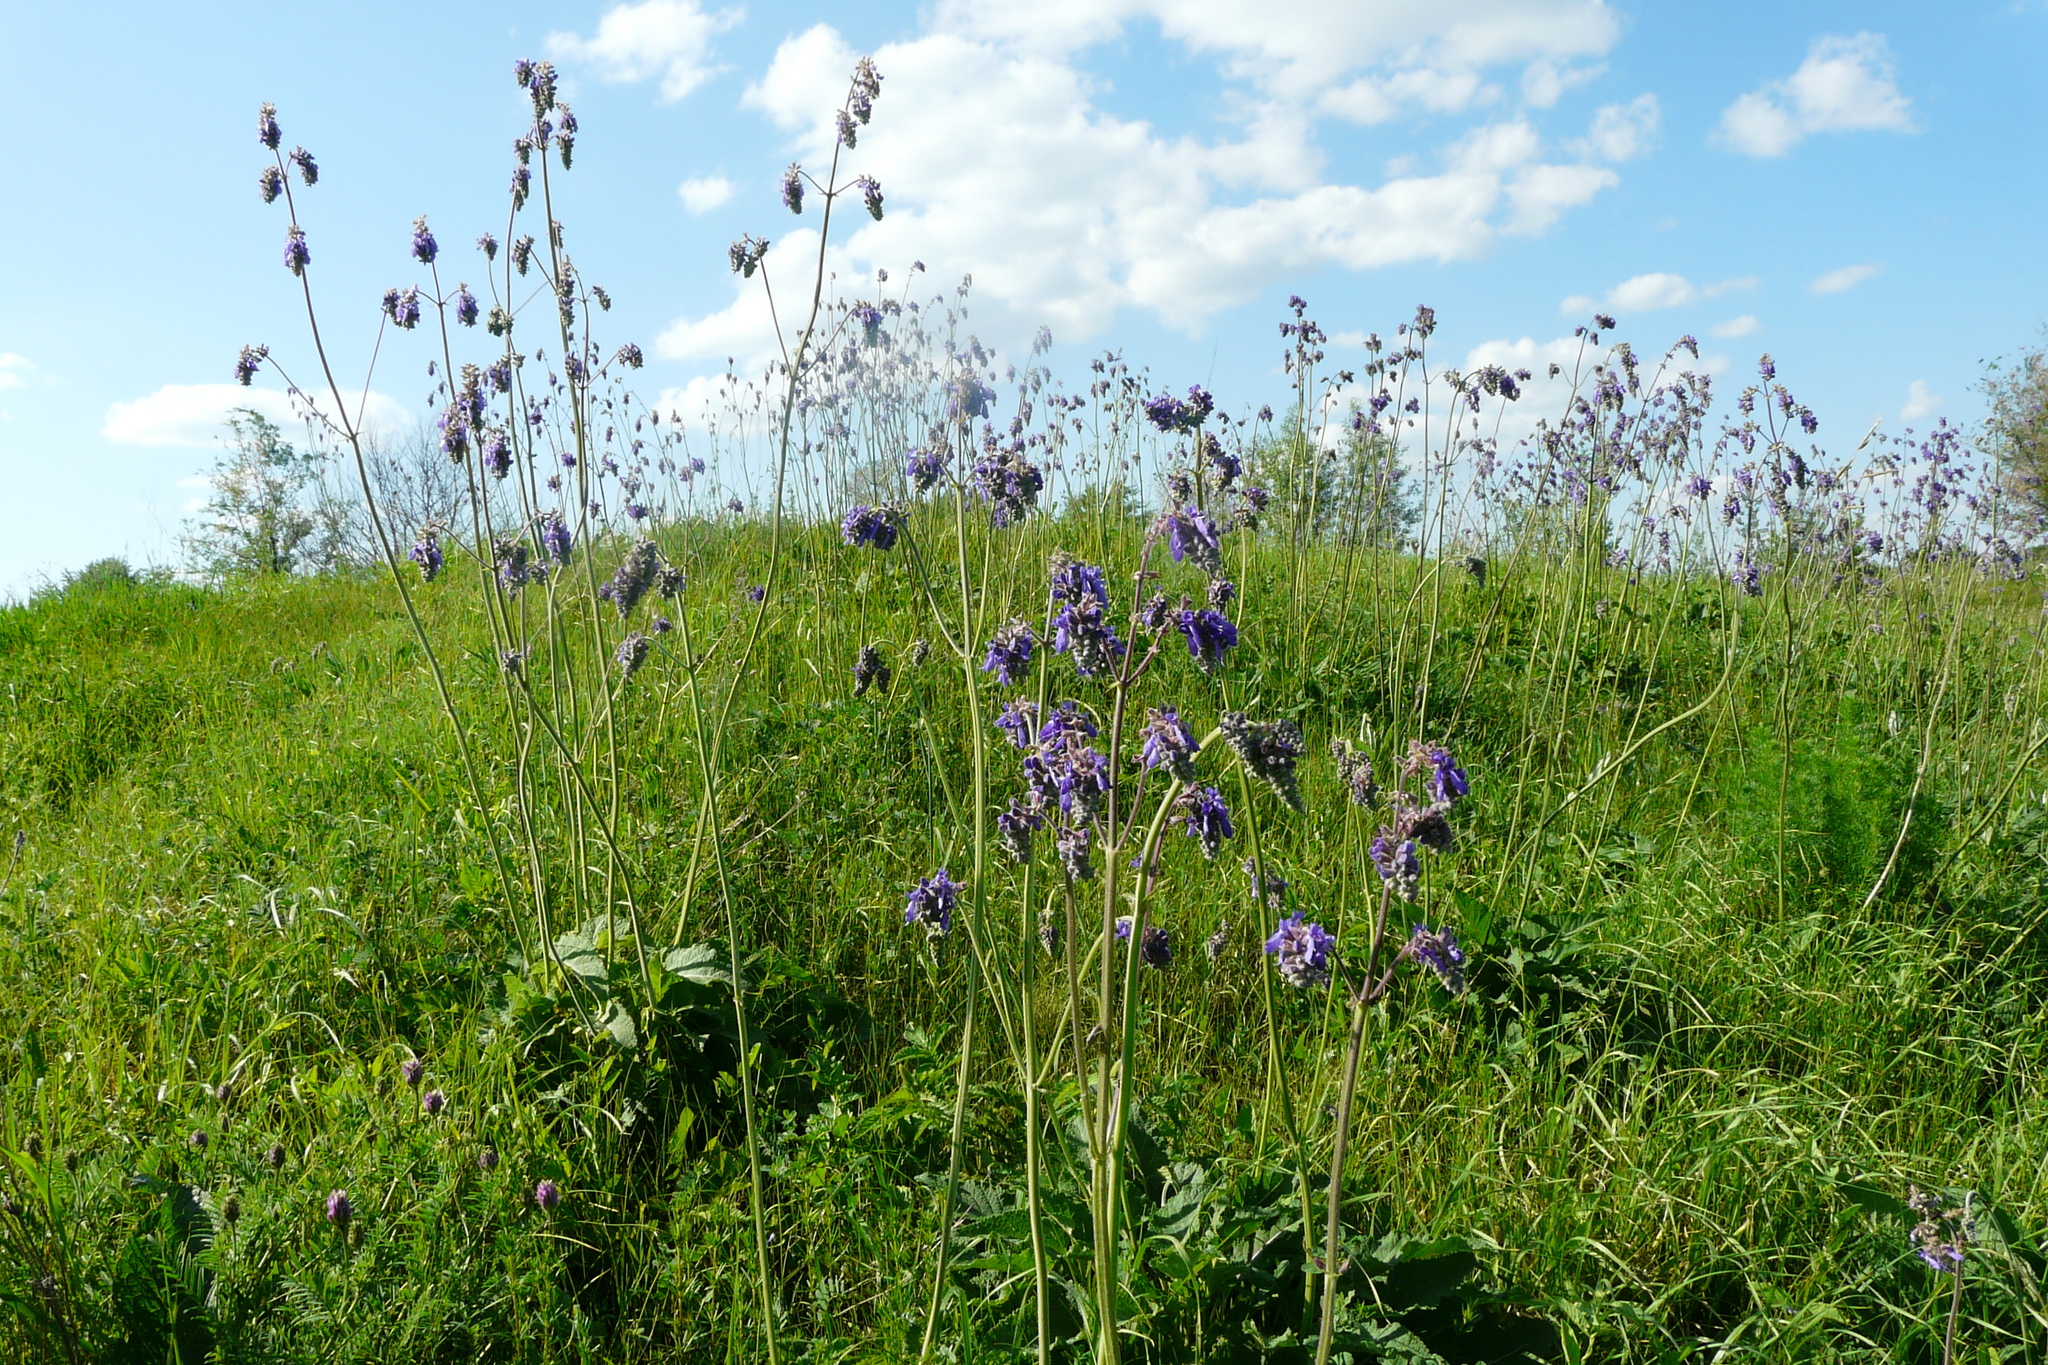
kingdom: Plantae
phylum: Tracheophyta
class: Magnoliopsida
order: Lamiales
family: Lamiaceae
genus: Salvia
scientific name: Salvia nutans
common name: Nodding sage
